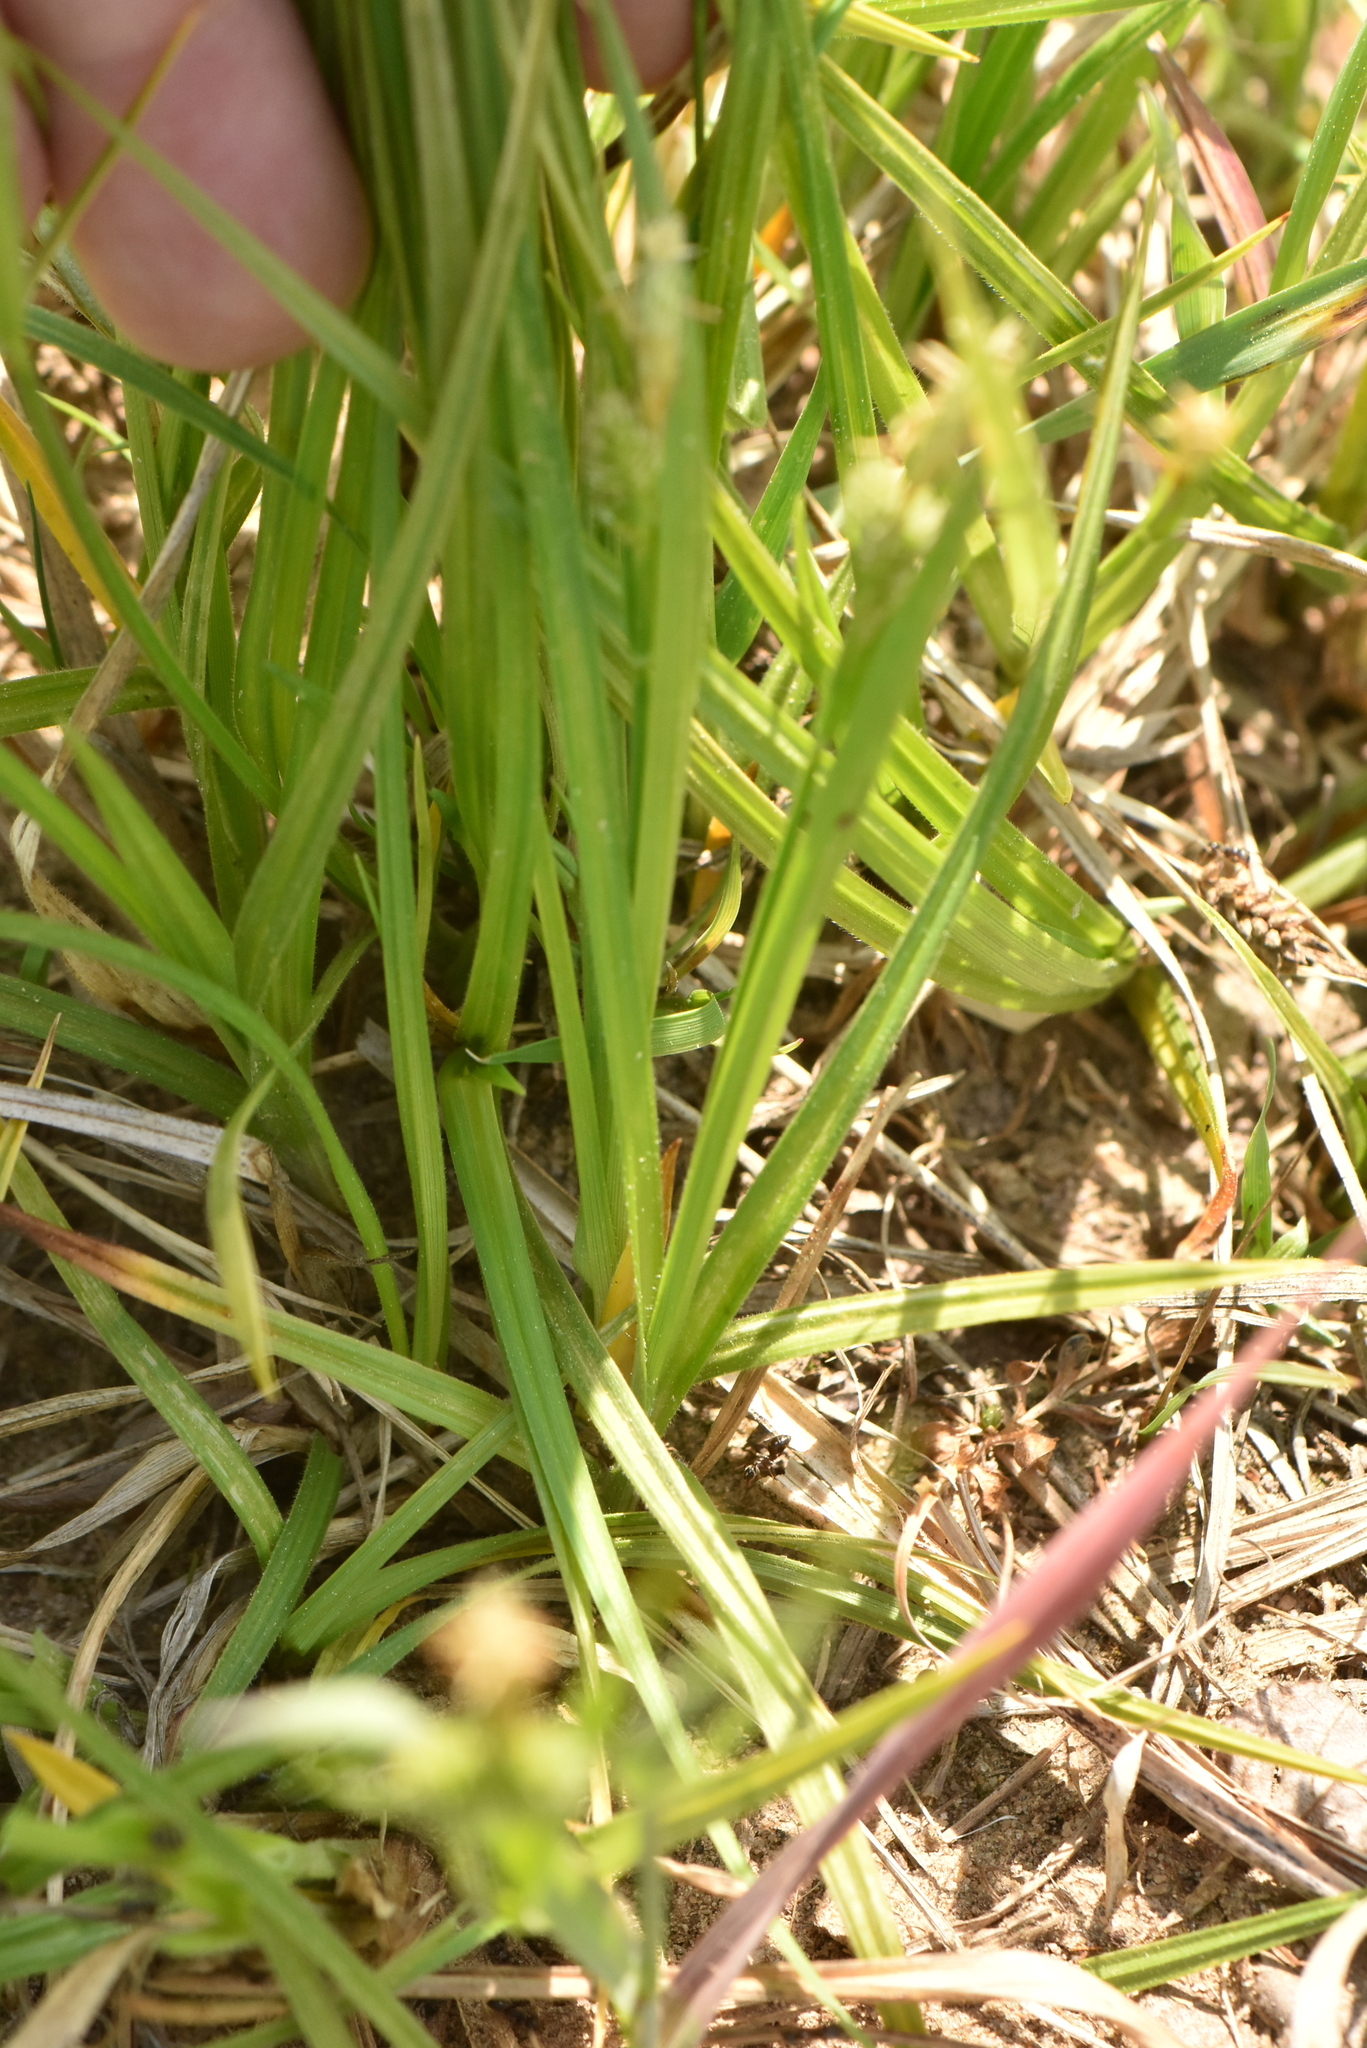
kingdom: Plantae
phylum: Tracheophyta
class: Liliopsida
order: Poales
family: Cyperaceae
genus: Carex
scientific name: Carex pallescens
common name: Pale sedge
